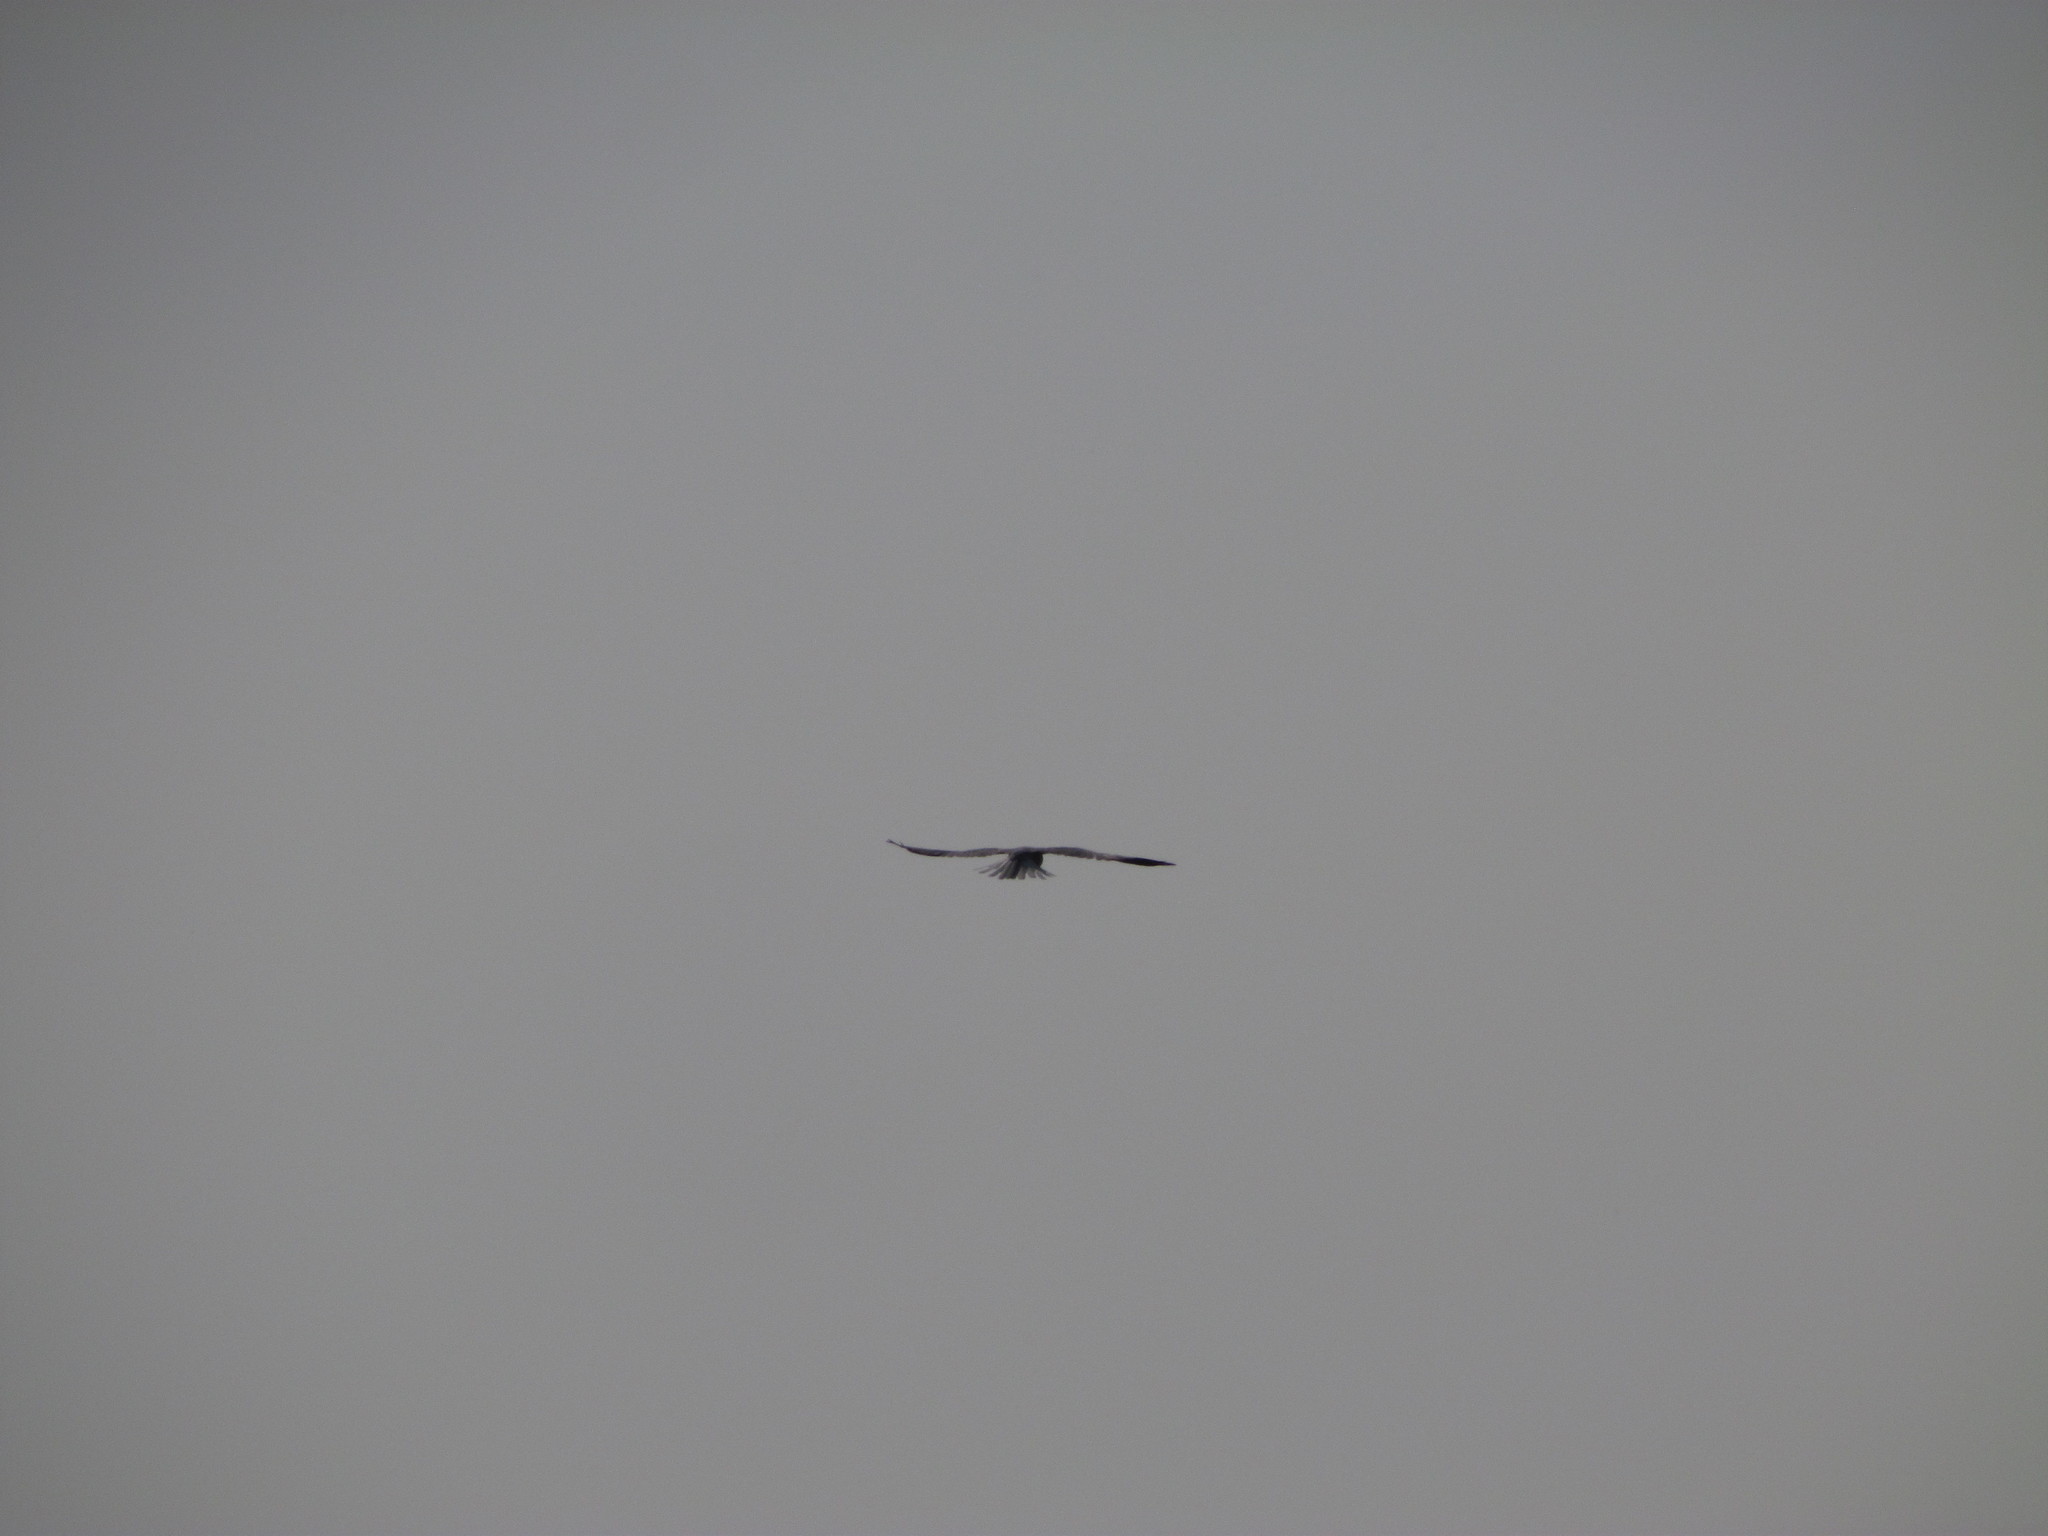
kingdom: Animalia
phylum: Chordata
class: Aves
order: Accipitriformes
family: Accipitridae
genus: Elanus
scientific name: Elanus leucurus
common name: White-tailed kite
